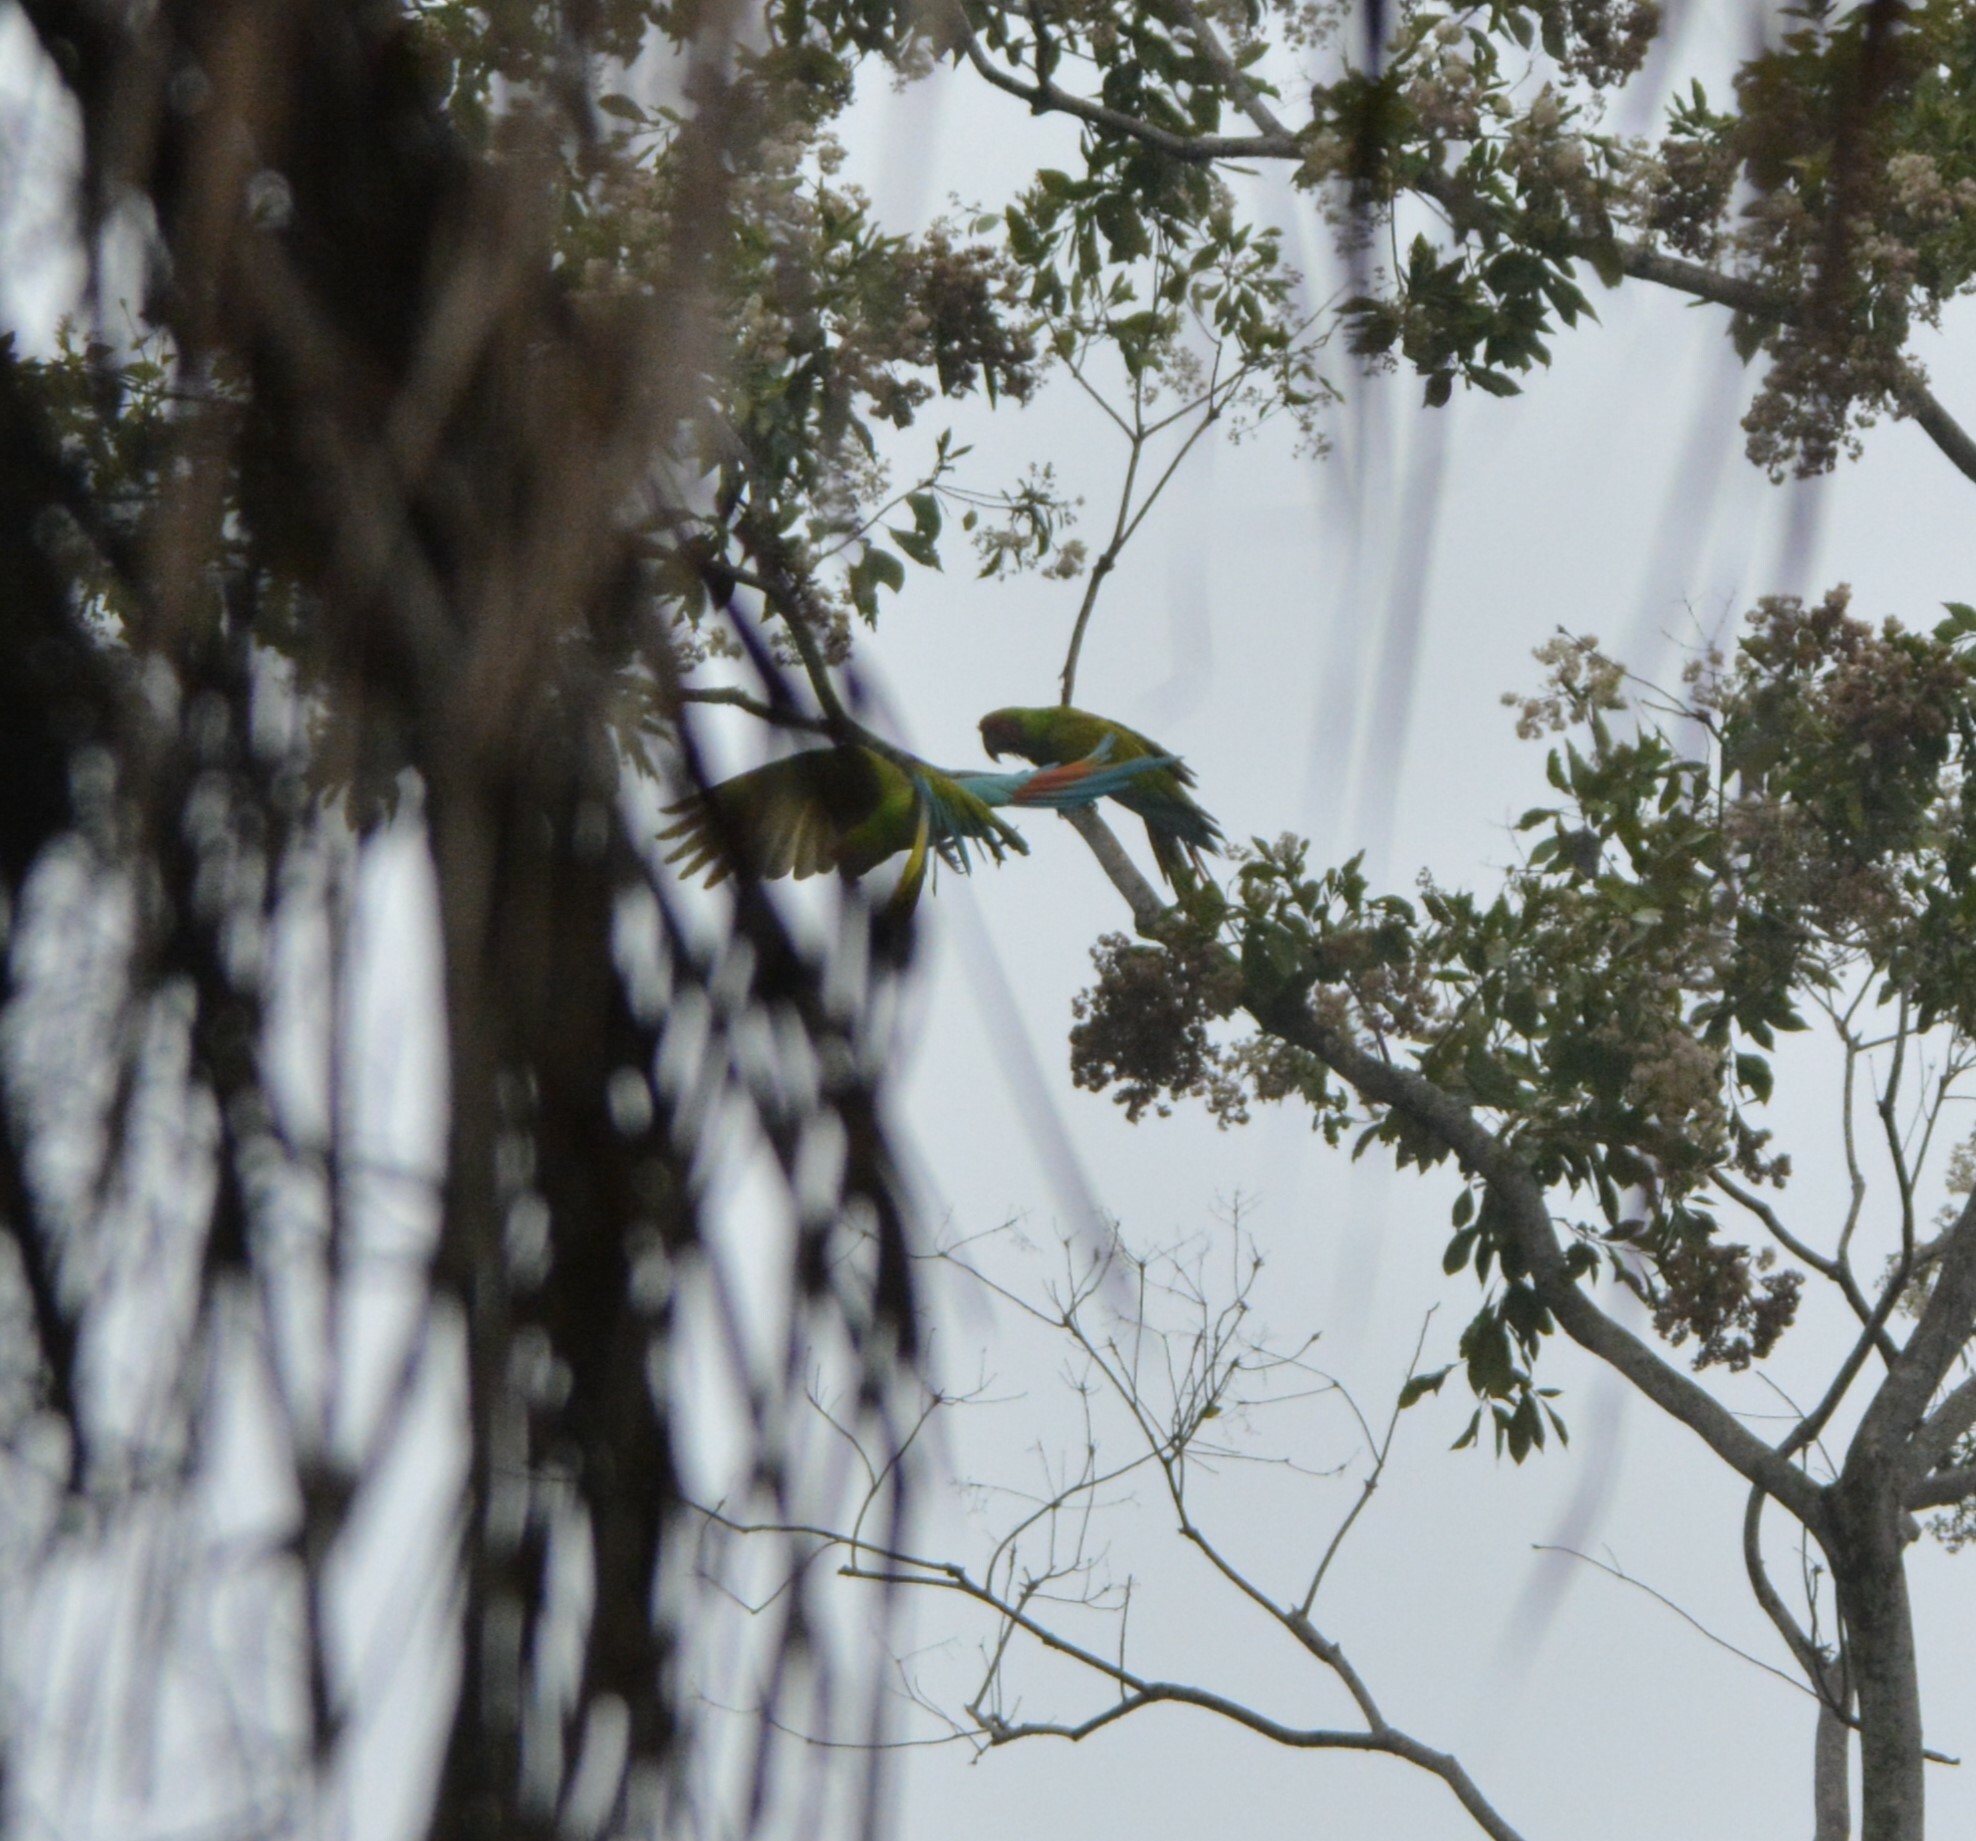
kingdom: Animalia
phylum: Chordata
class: Aves
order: Psittaciformes
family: Psittacidae
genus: Ara
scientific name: Ara ambiguus
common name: Great green macaw
